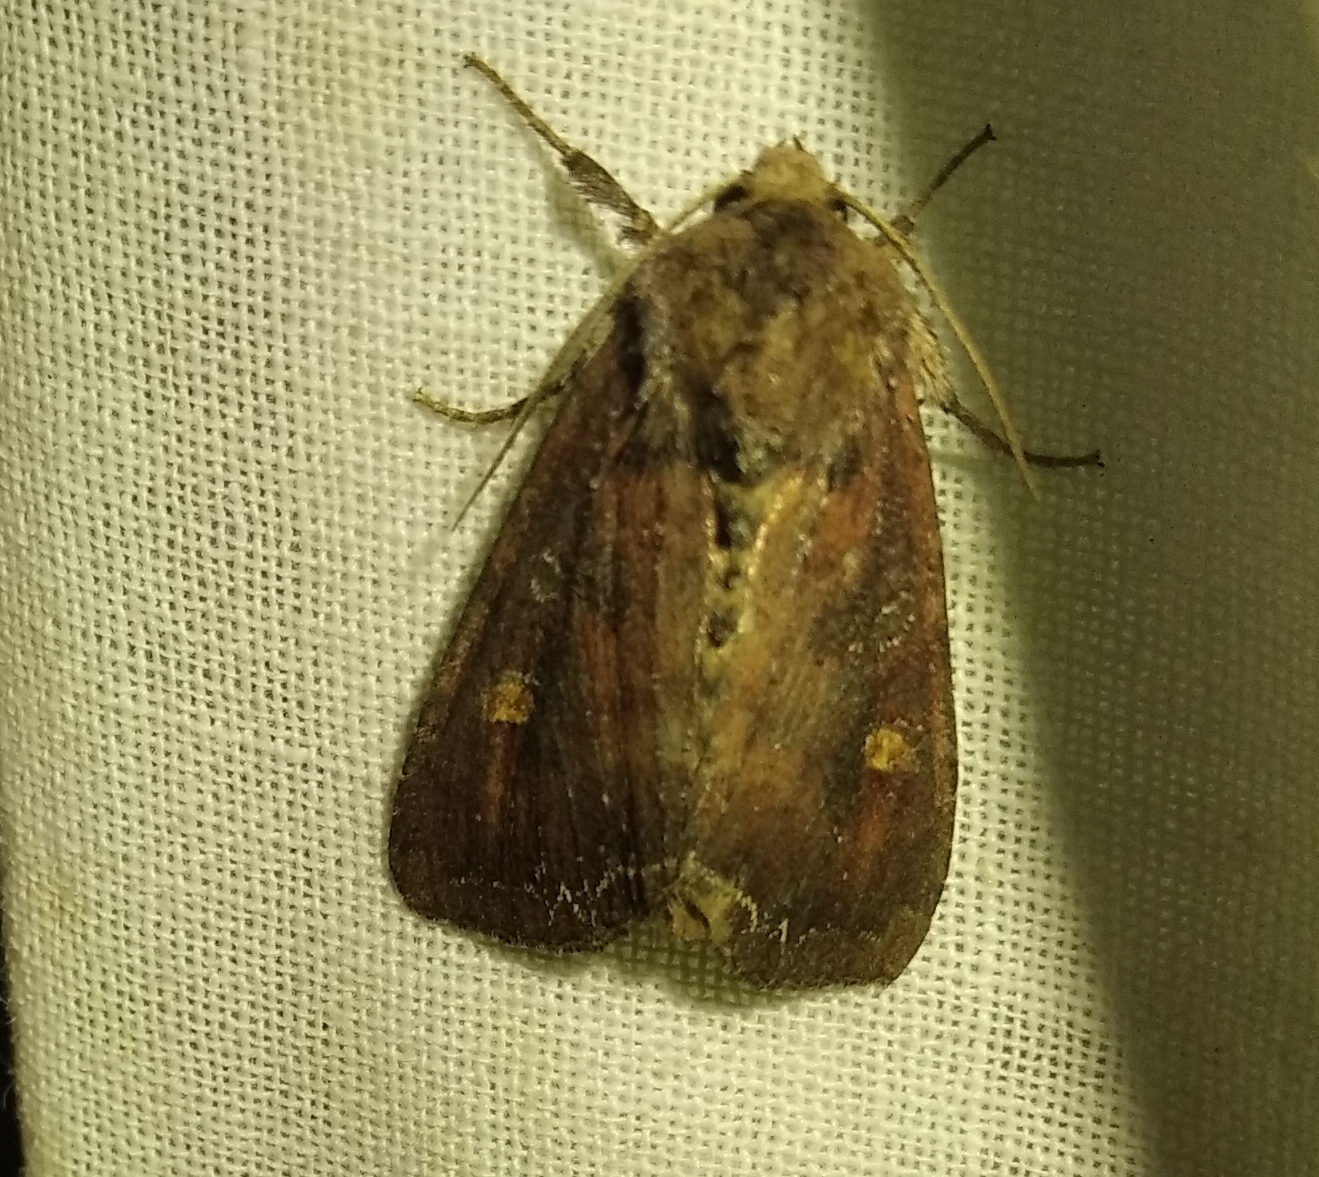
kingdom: Animalia
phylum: Arthropoda
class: Insecta
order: Lepidoptera
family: Noctuidae
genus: Lacanobia
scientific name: Lacanobia oleracea
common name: Bright-line brown-eye
